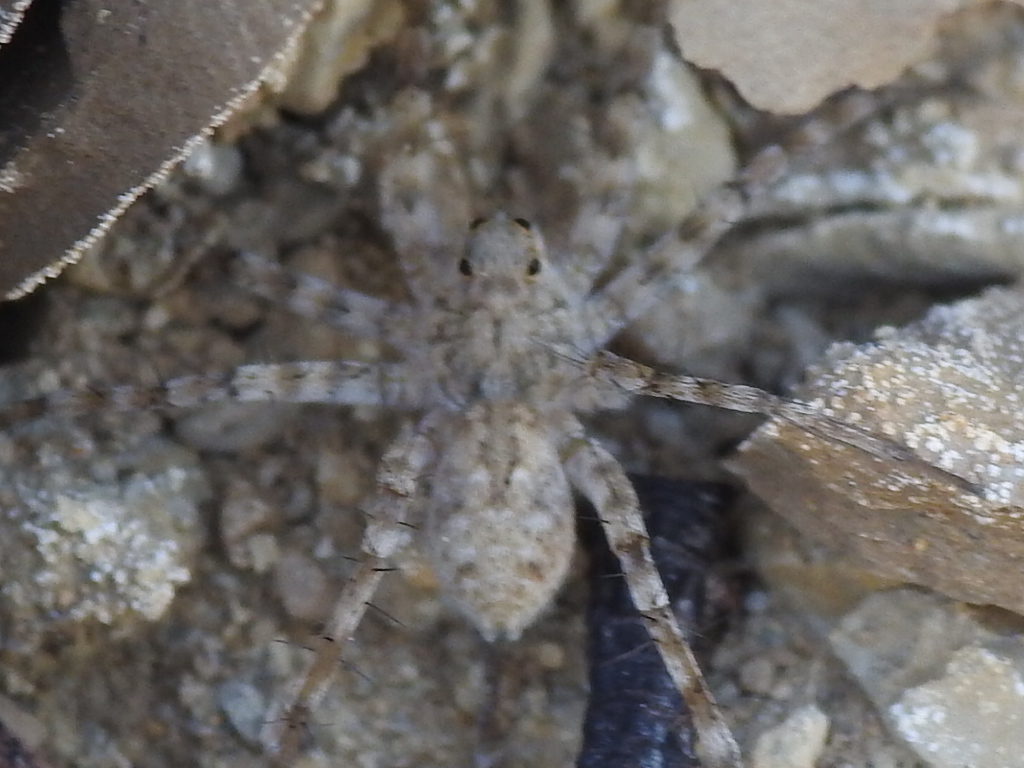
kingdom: Animalia
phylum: Arthropoda
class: Arachnida
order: Araneae
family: Lycosidae
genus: Pardosa
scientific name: Pardosa mercurialis
